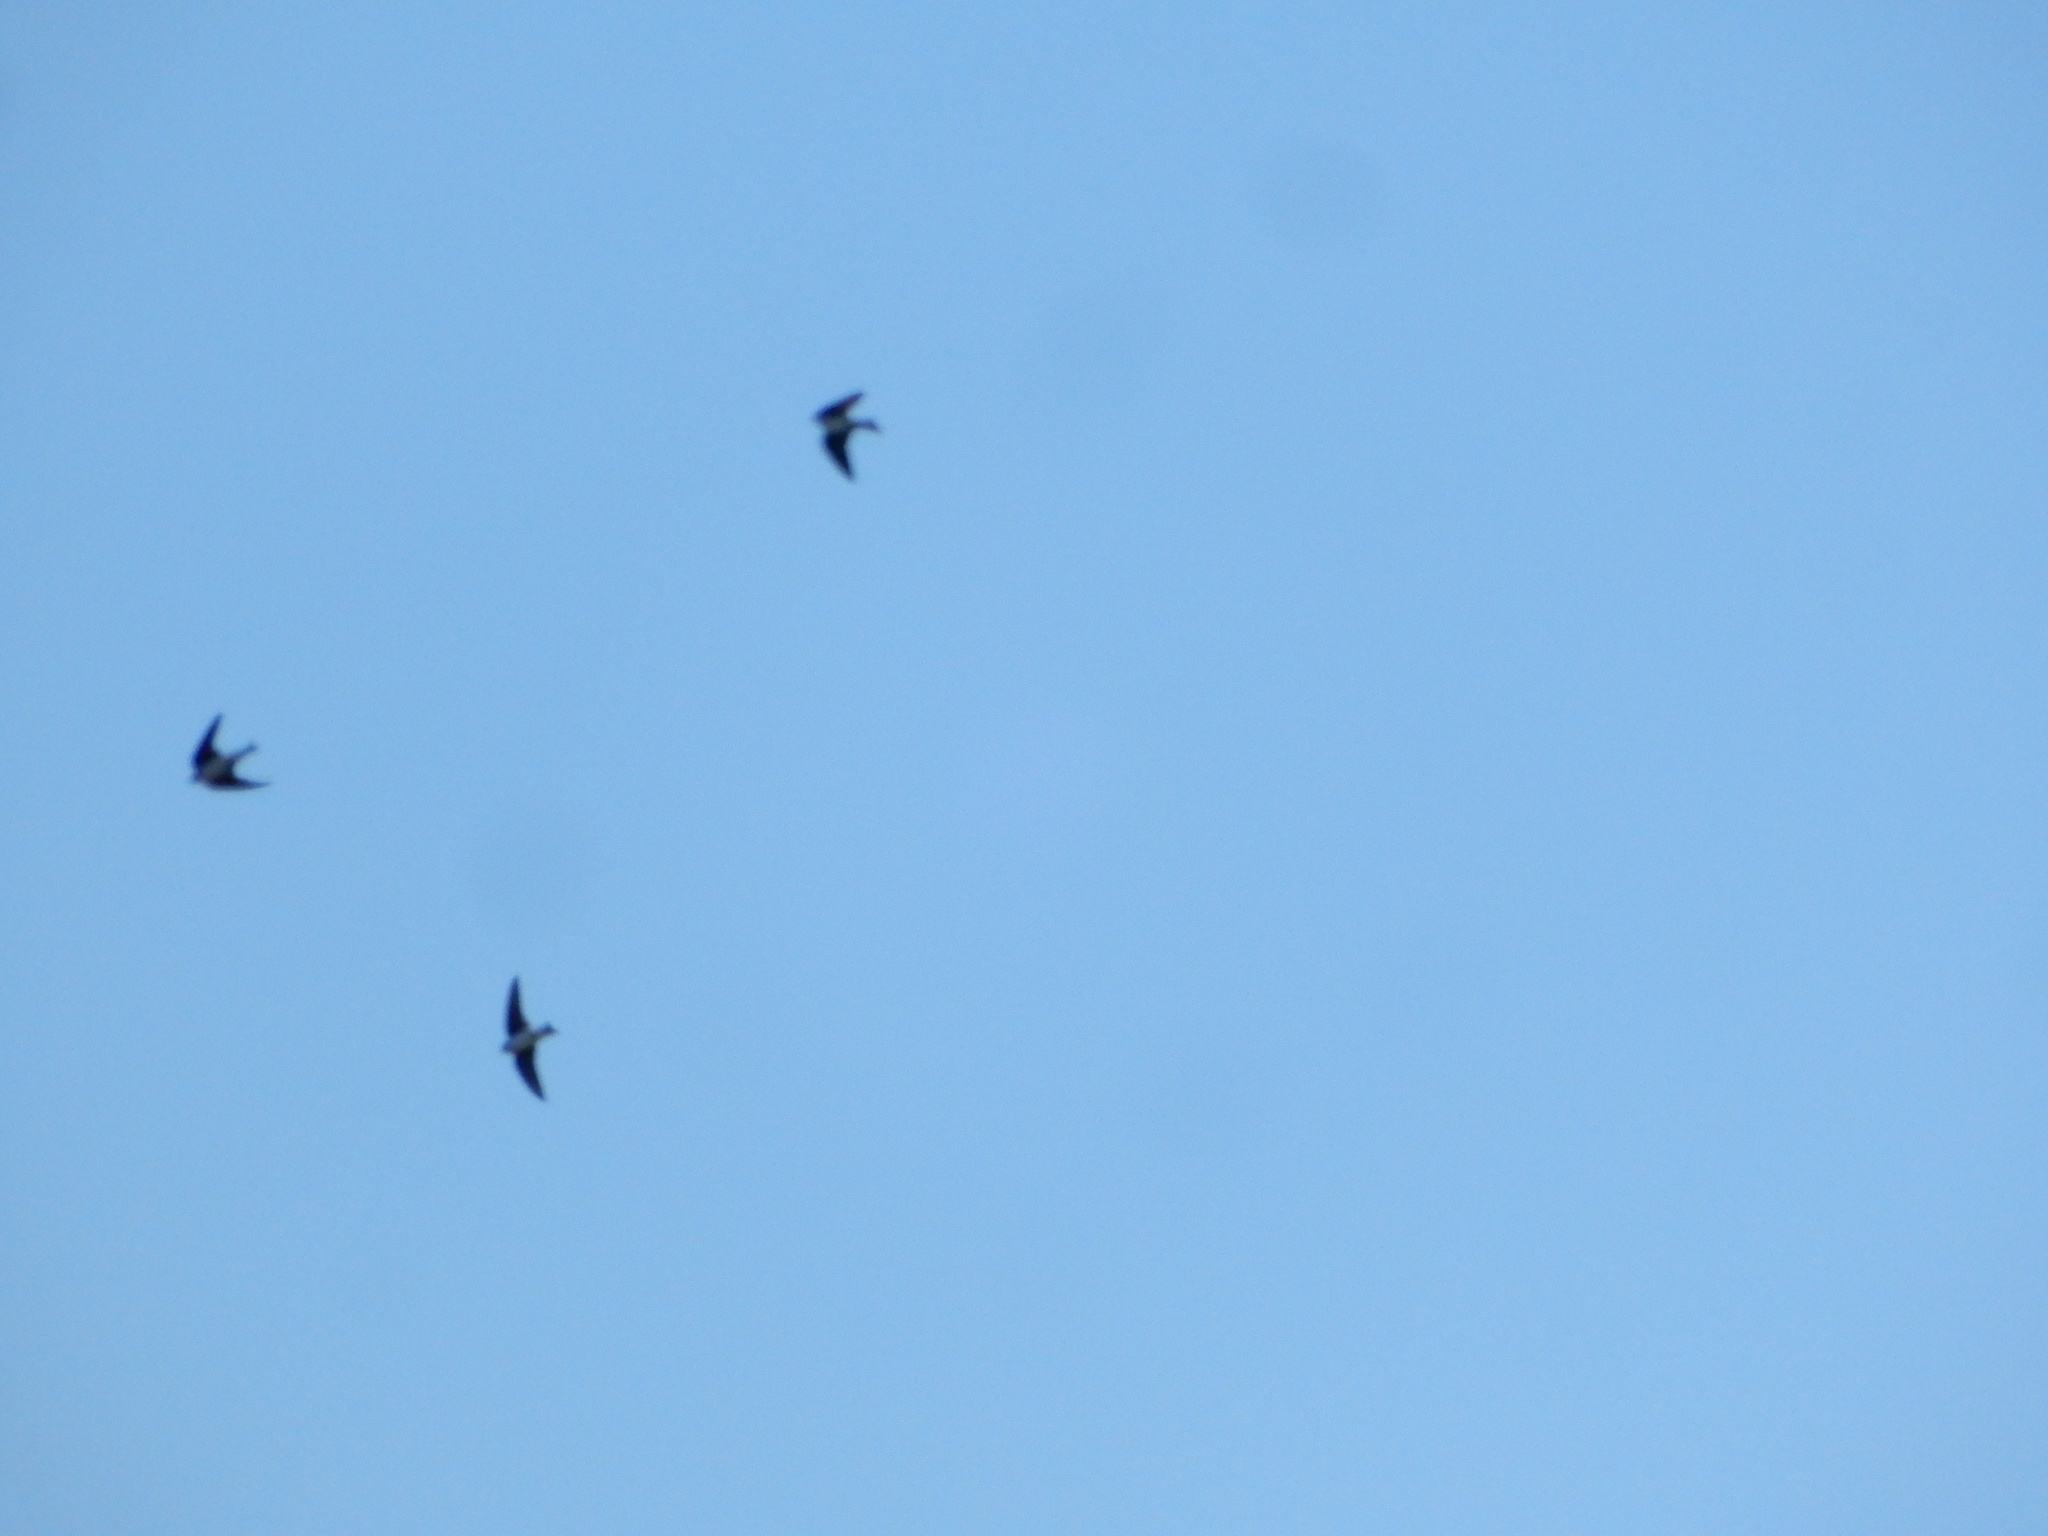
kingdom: Animalia
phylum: Chordata
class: Aves
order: Passeriformes
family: Hirundinidae
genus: Tachycineta
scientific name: Tachycineta bicolor
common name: Tree swallow
